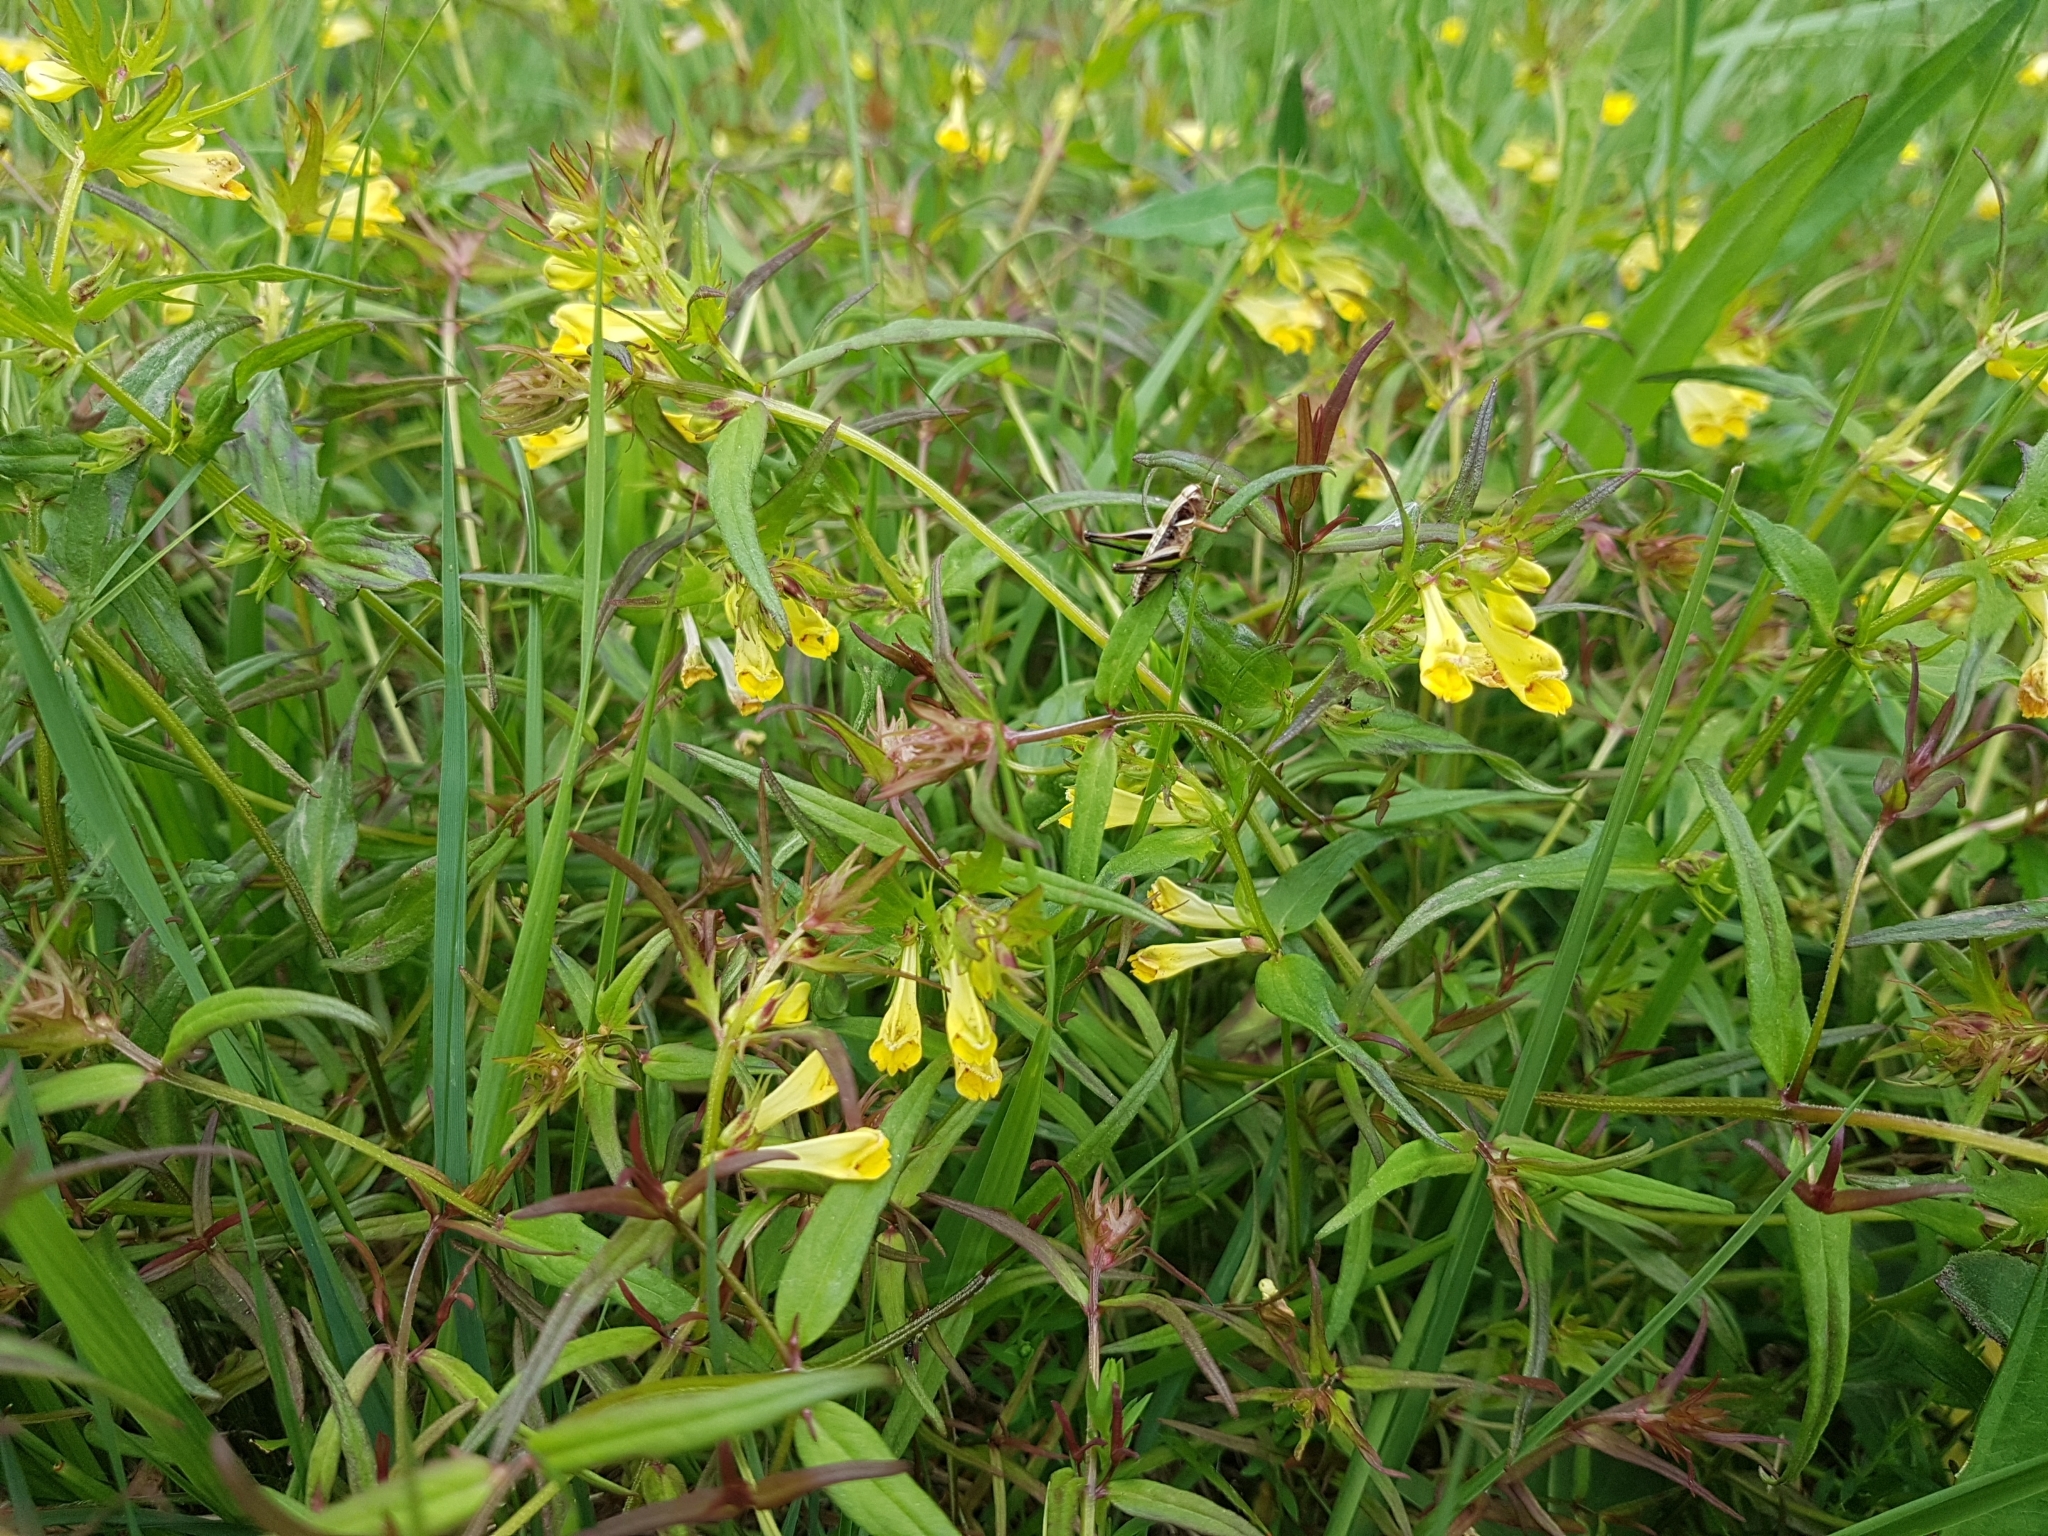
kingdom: Plantae
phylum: Tracheophyta
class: Magnoliopsida
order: Lamiales
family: Orobanchaceae
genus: Melampyrum
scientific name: Melampyrum pratense
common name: Common cow-wheat
